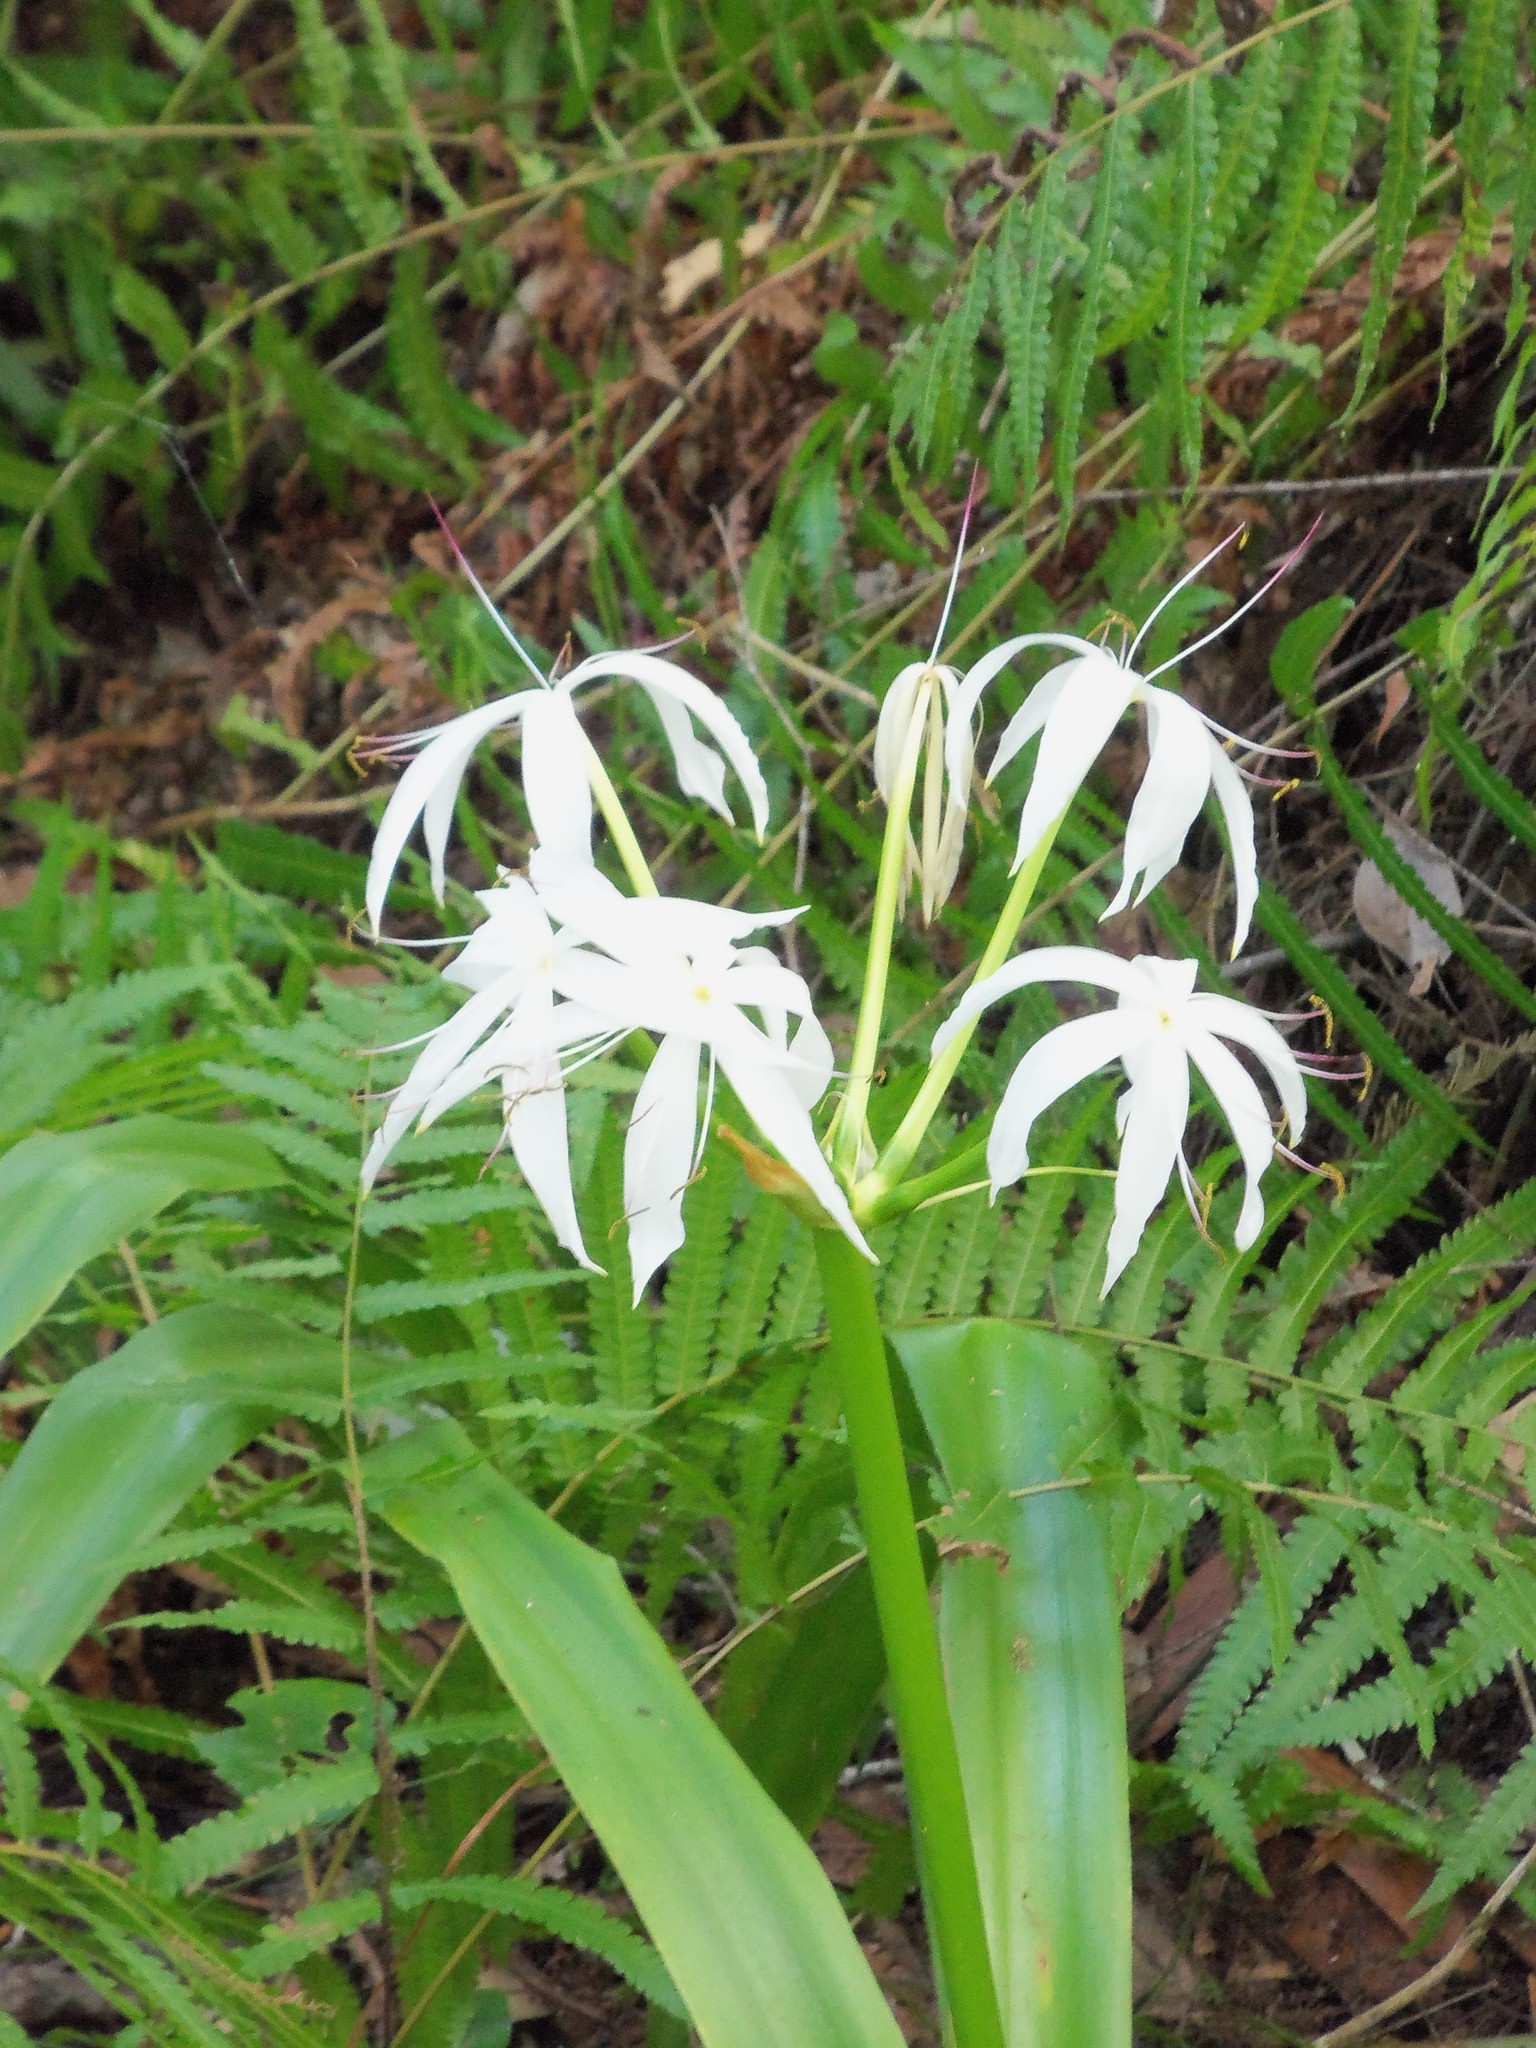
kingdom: Plantae
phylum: Tracheophyta
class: Liliopsida
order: Asparagales
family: Amaryllidaceae
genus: Crinum
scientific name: Crinum americanum
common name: Florida swamp-lily
